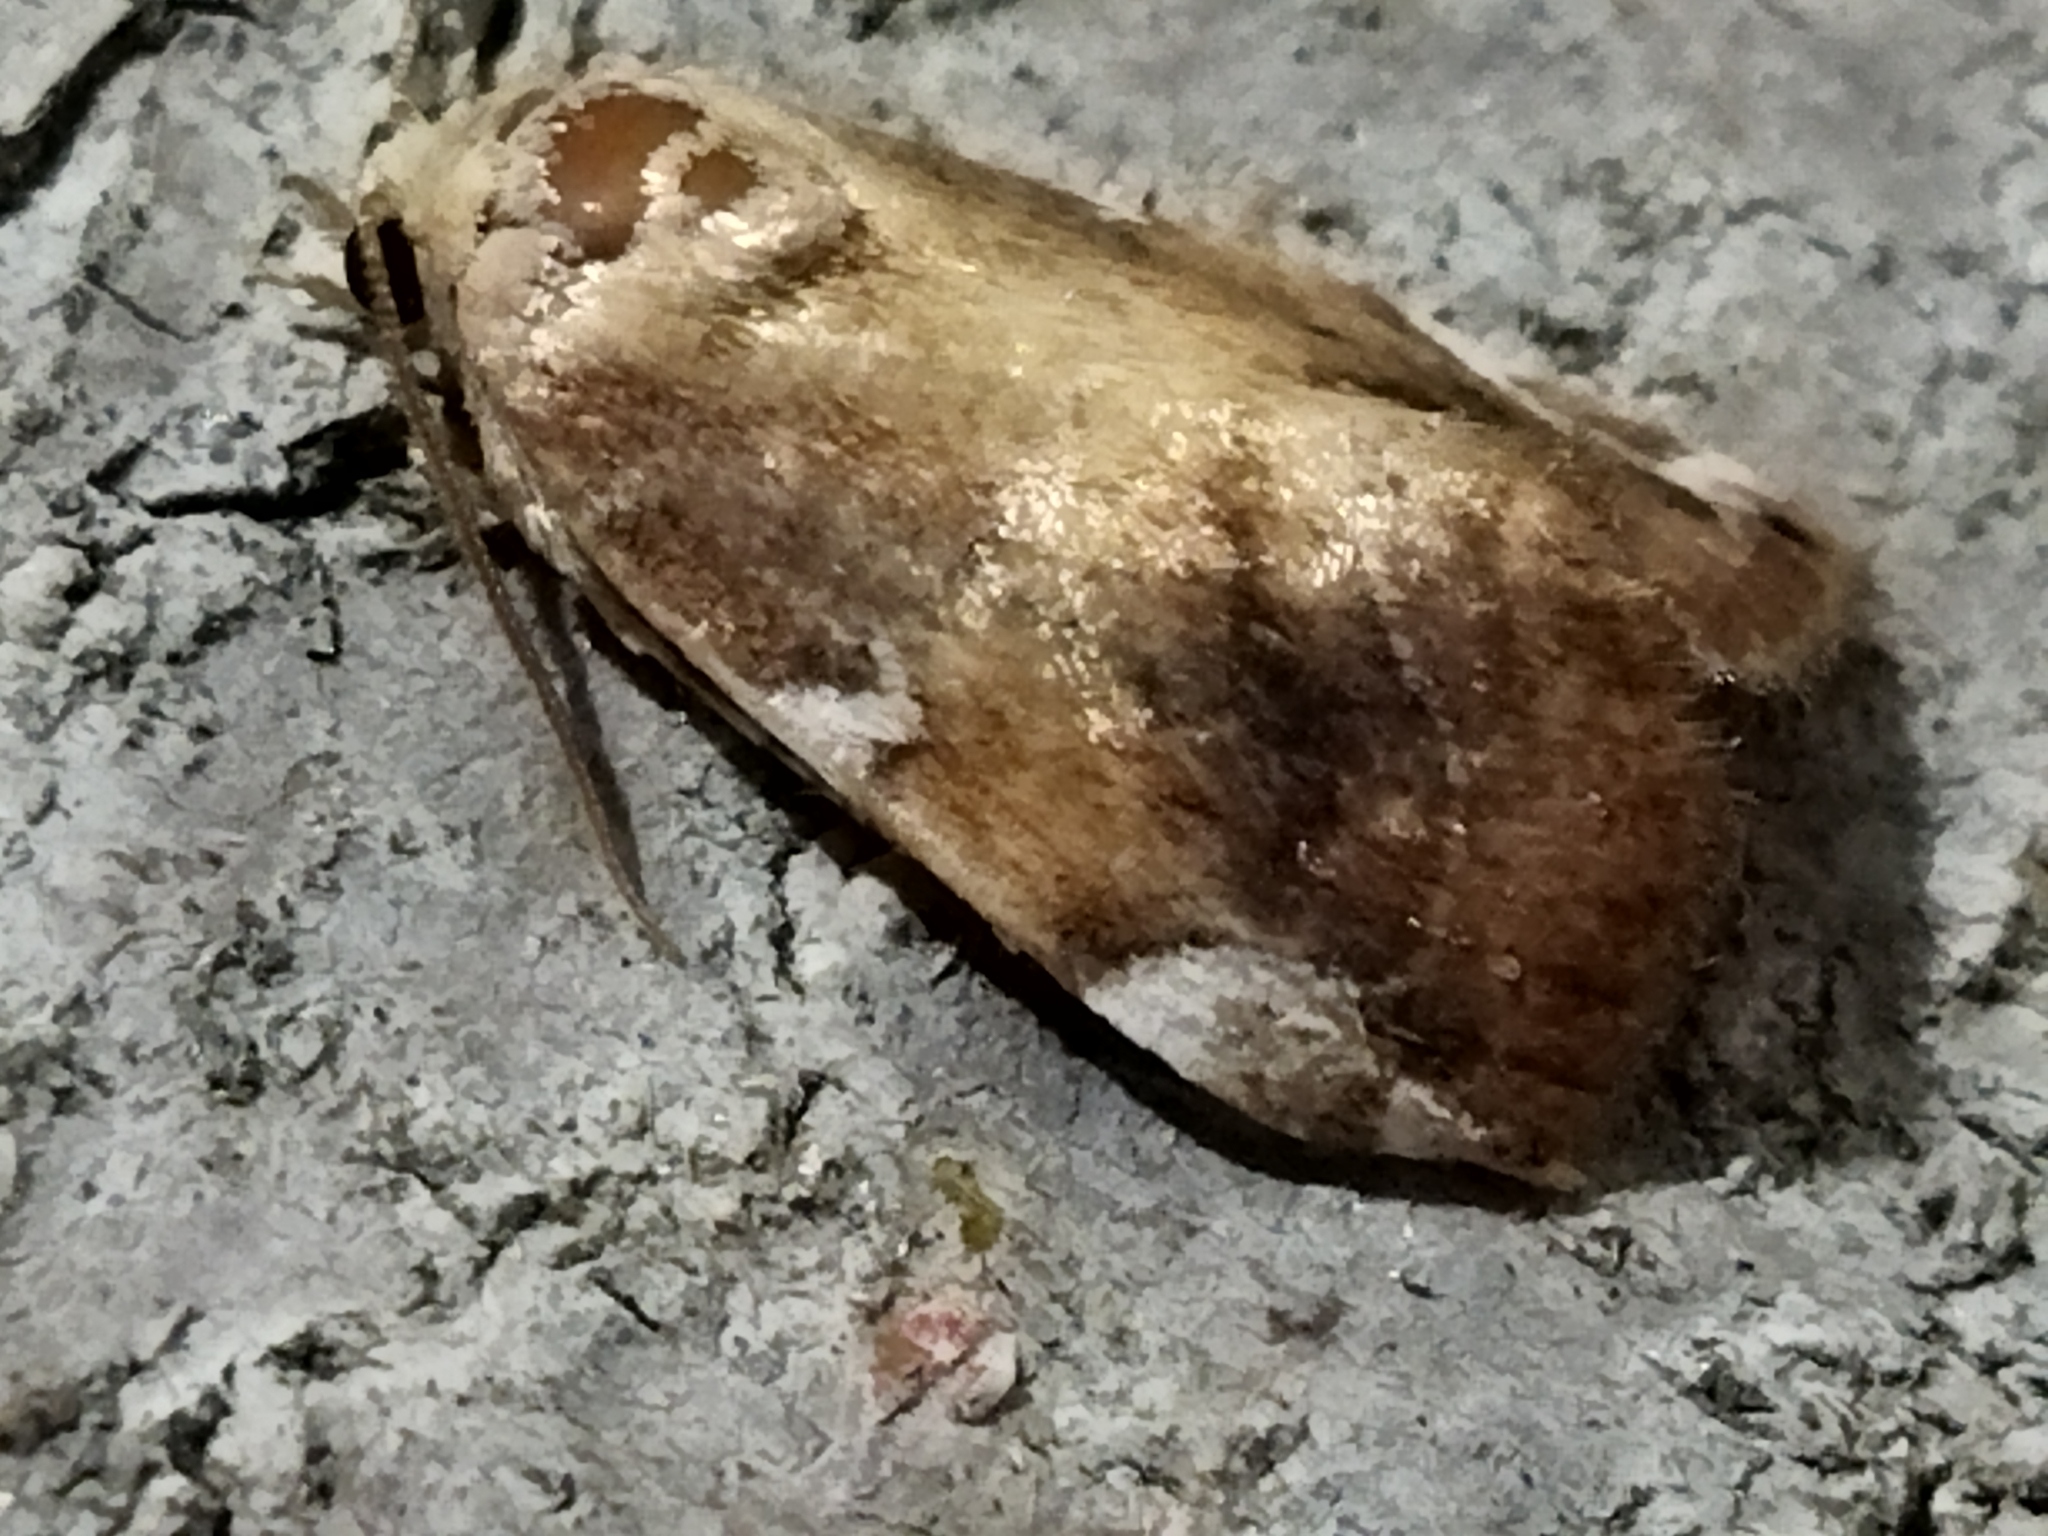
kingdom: Animalia
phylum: Arthropoda
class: Insecta
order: Lepidoptera
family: Noctuidae
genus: Cosmia
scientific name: Cosmia confinis
